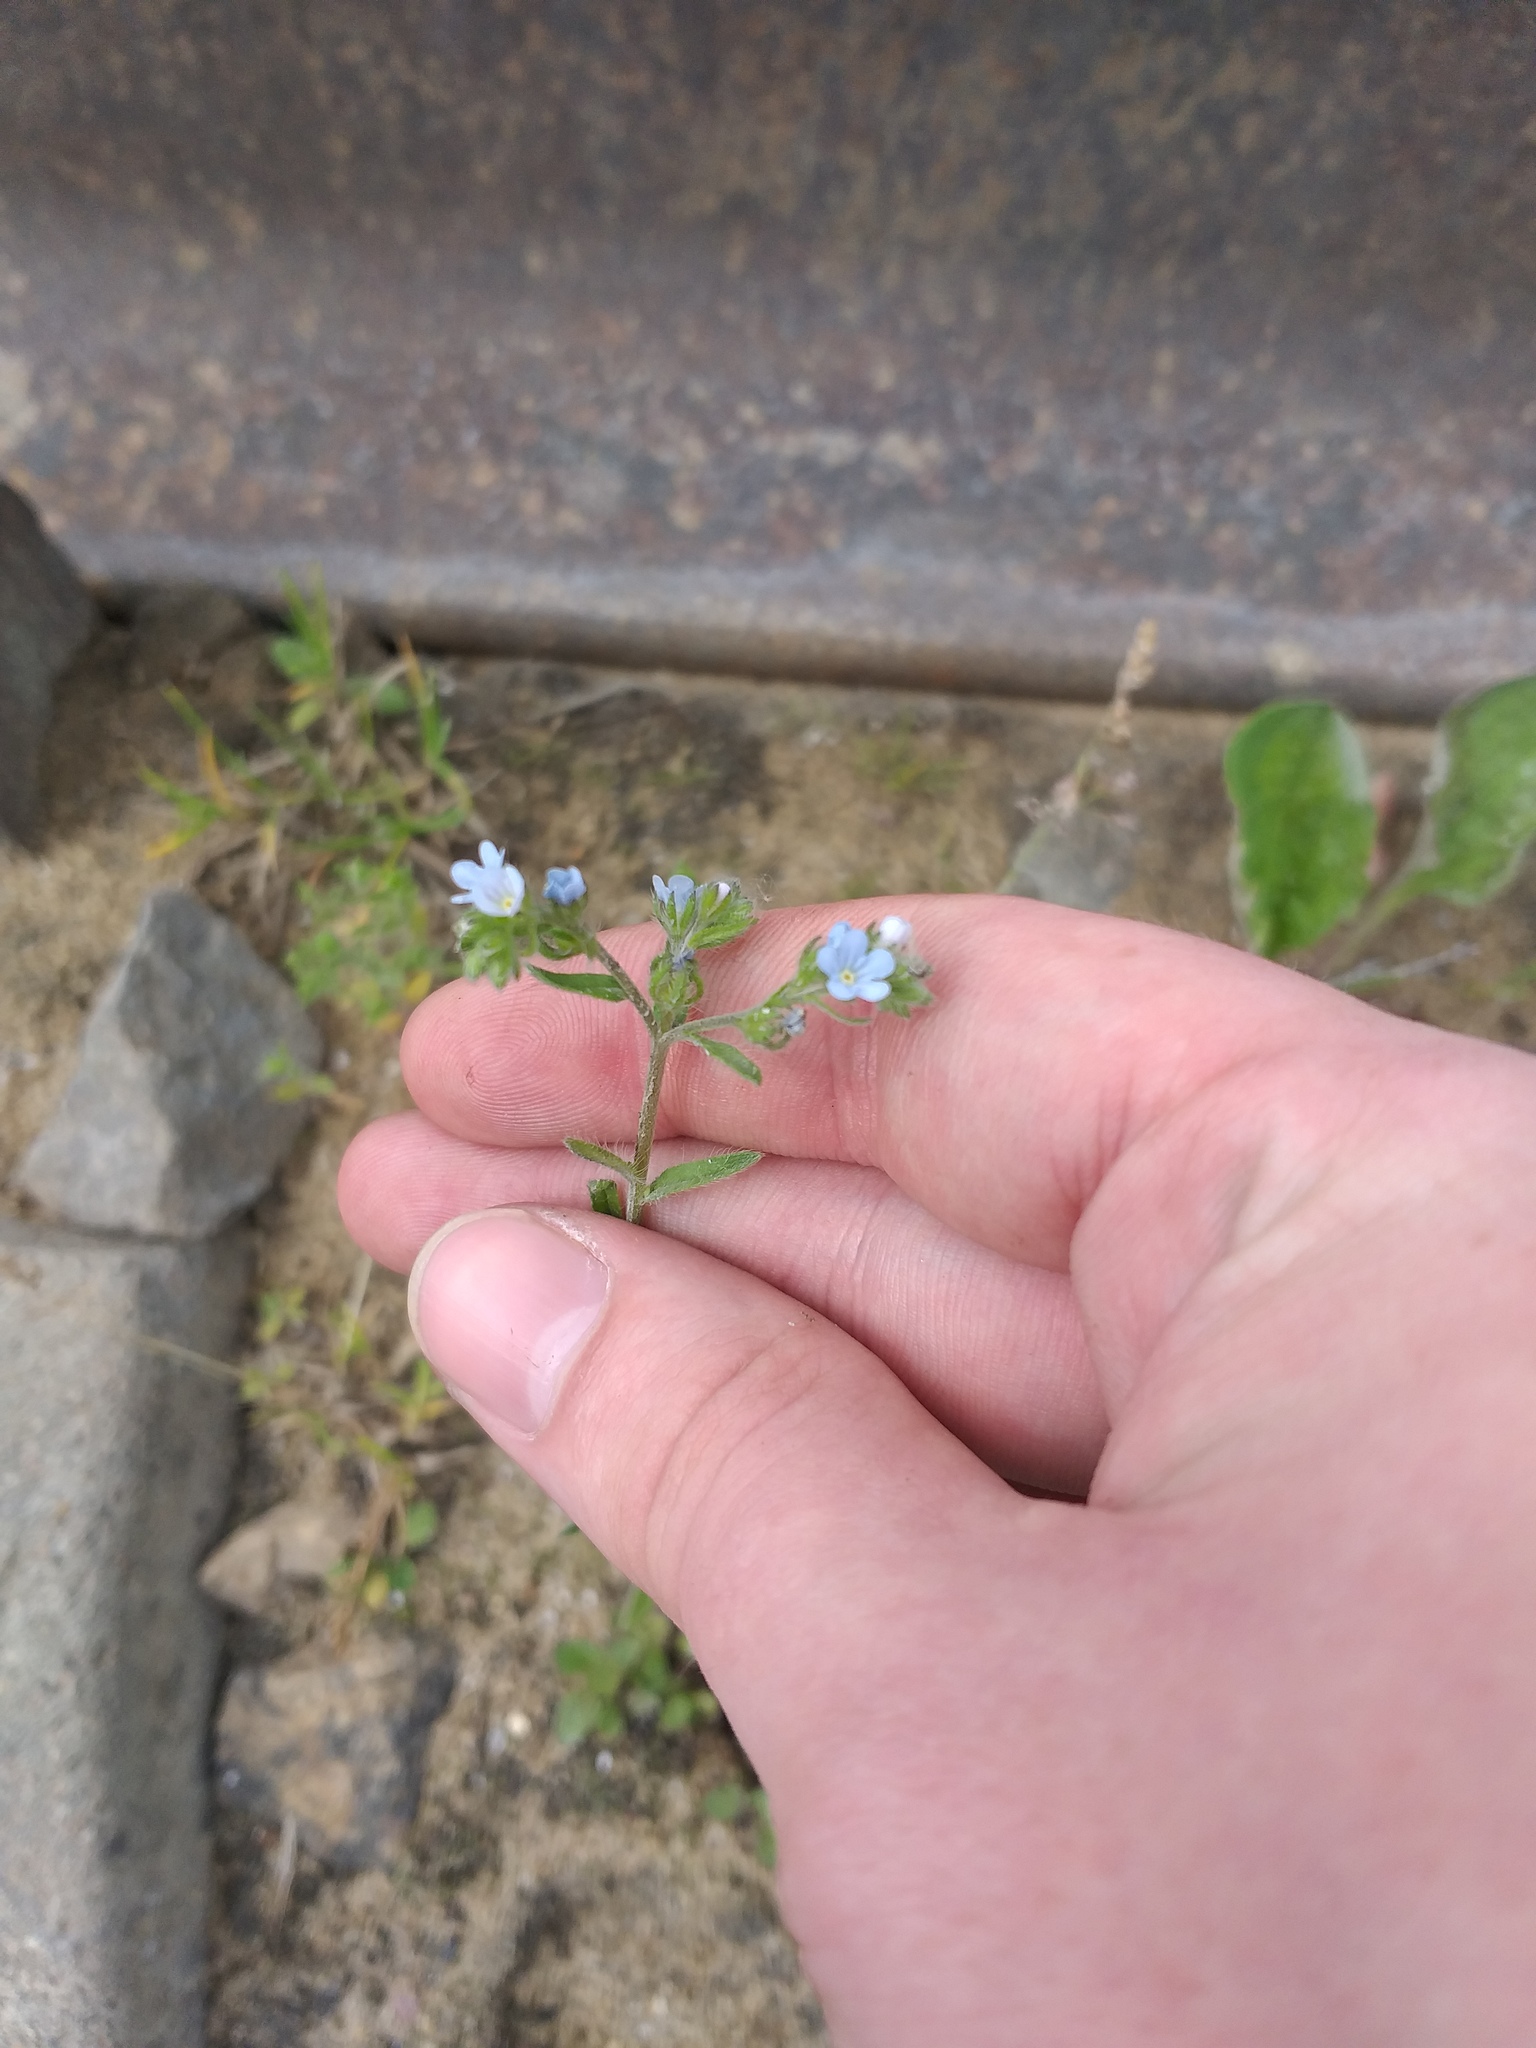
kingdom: Plantae
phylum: Tracheophyta
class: Magnoliopsida
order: Boraginales
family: Boraginaceae
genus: Lappula
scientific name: Lappula squarrosa
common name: European stickseed
